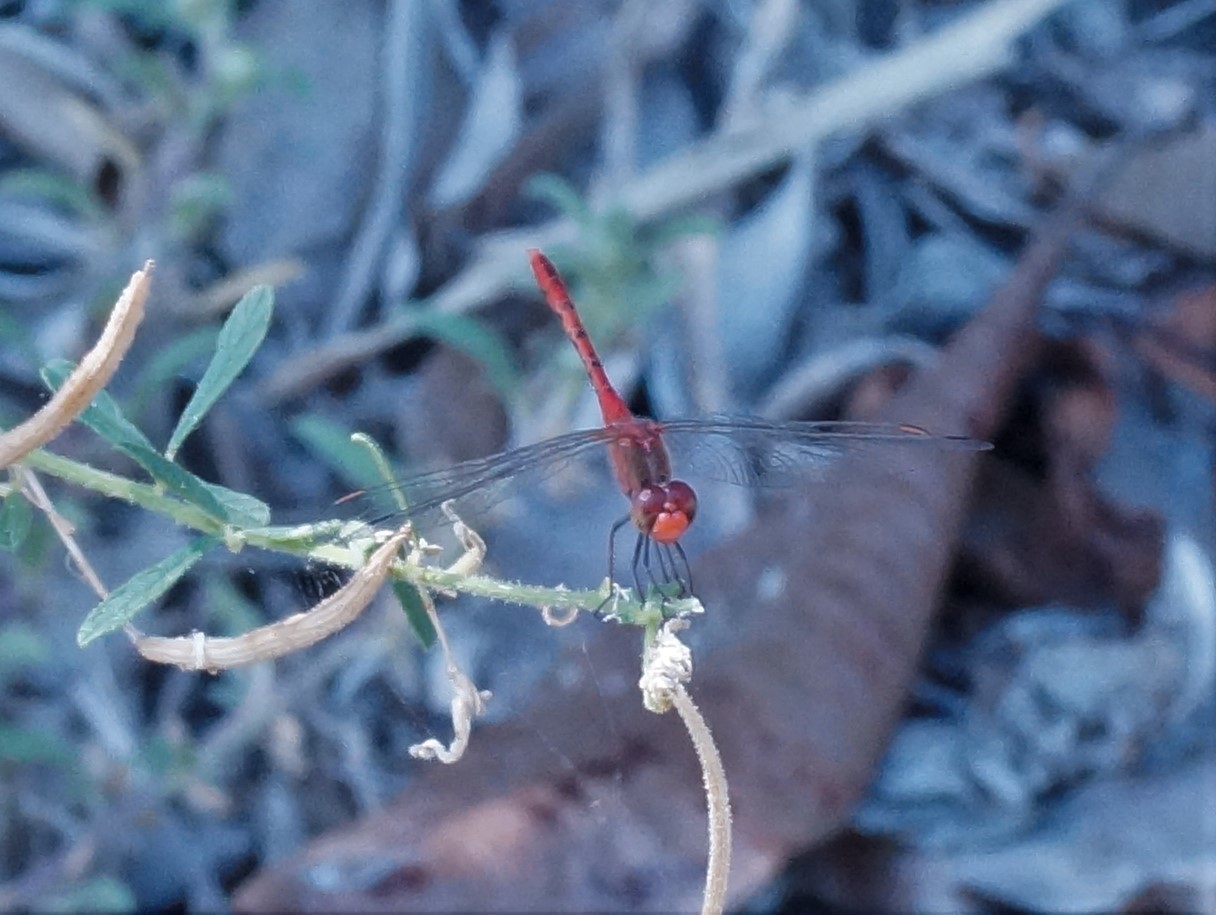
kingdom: Animalia
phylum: Arthropoda
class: Insecta
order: Odonata
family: Libellulidae
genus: Diplacodes
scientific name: Diplacodes bipunctata
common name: Red percher dragonfly
